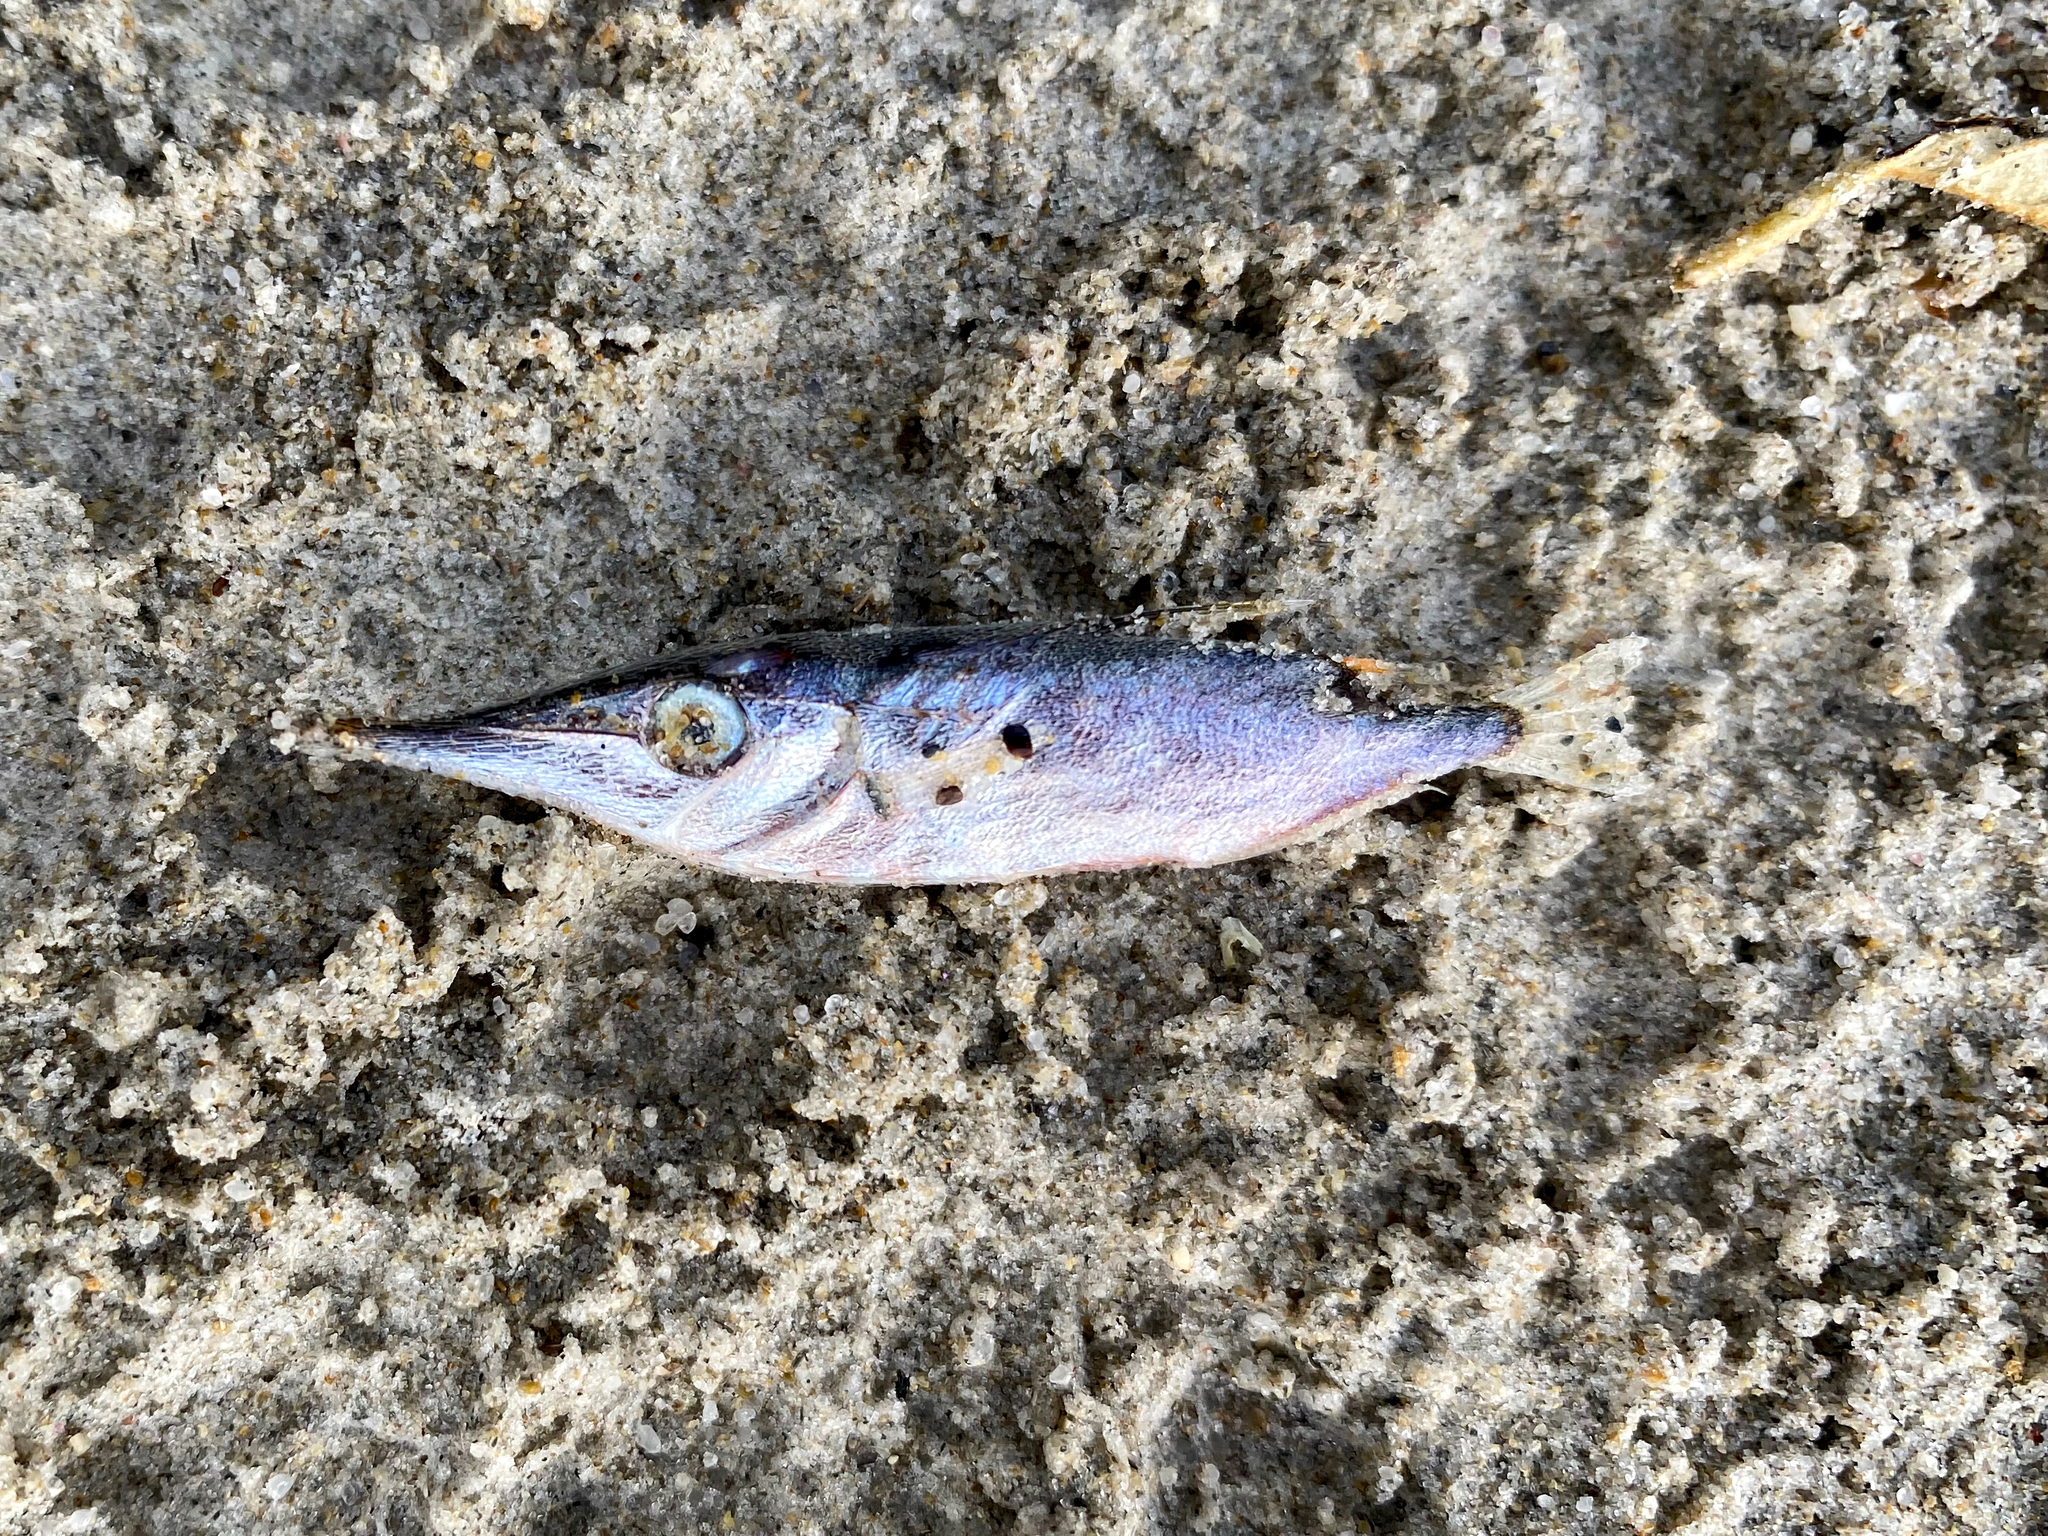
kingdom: Animalia
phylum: Chordata
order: Syngnathiformes
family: Centriscidae
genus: Macroramphosus
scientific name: Macroramphosus gracilis
